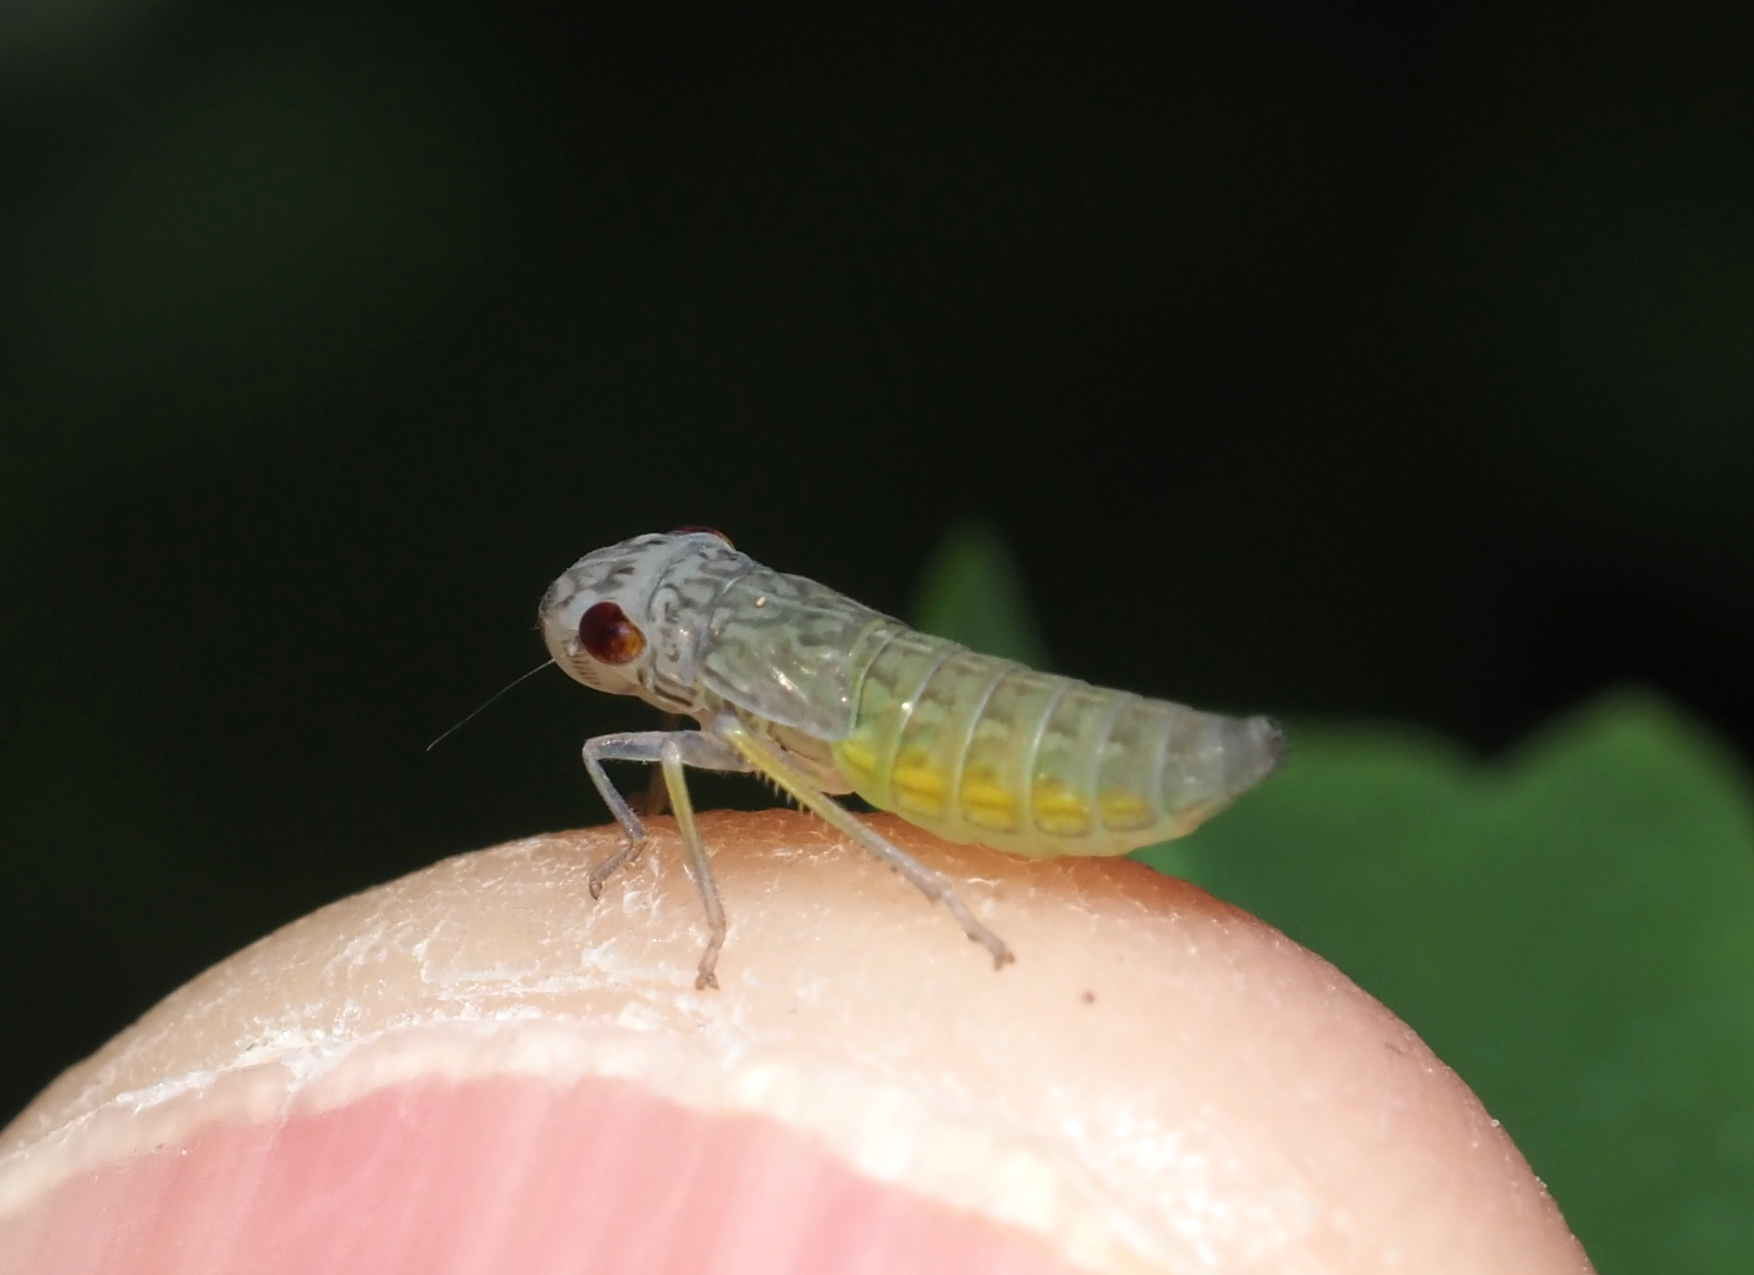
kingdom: Animalia
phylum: Arthropoda
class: Insecta
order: Hemiptera
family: Cicadellidae
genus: Oncometopia
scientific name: Oncometopia orbona
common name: Broad-headed sharpshooter
